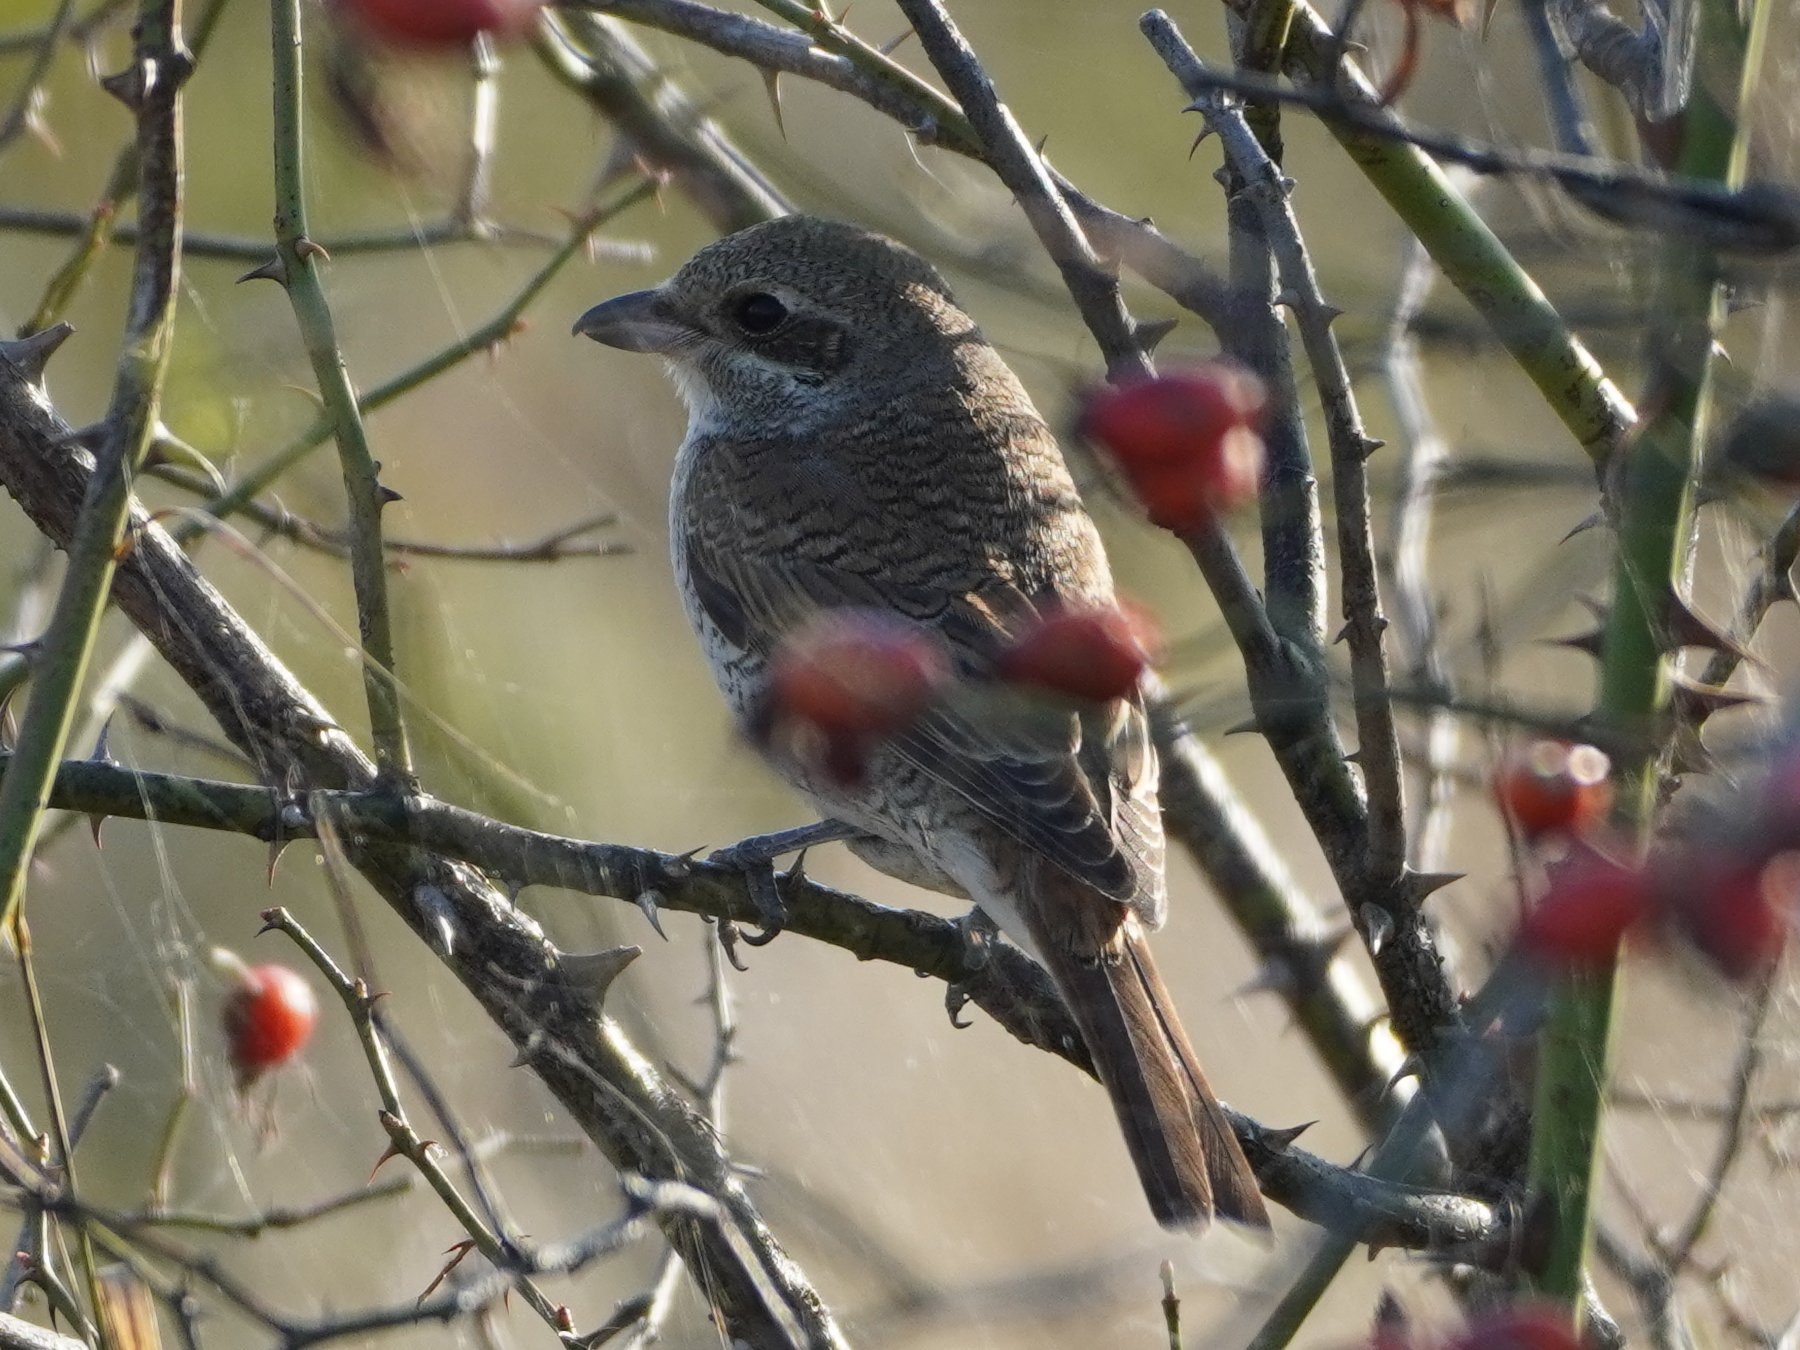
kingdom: Animalia
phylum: Chordata
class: Aves
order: Passeriformes
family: Laniidae
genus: Lanius
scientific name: Lanius collurio
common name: Red-backed shrike
